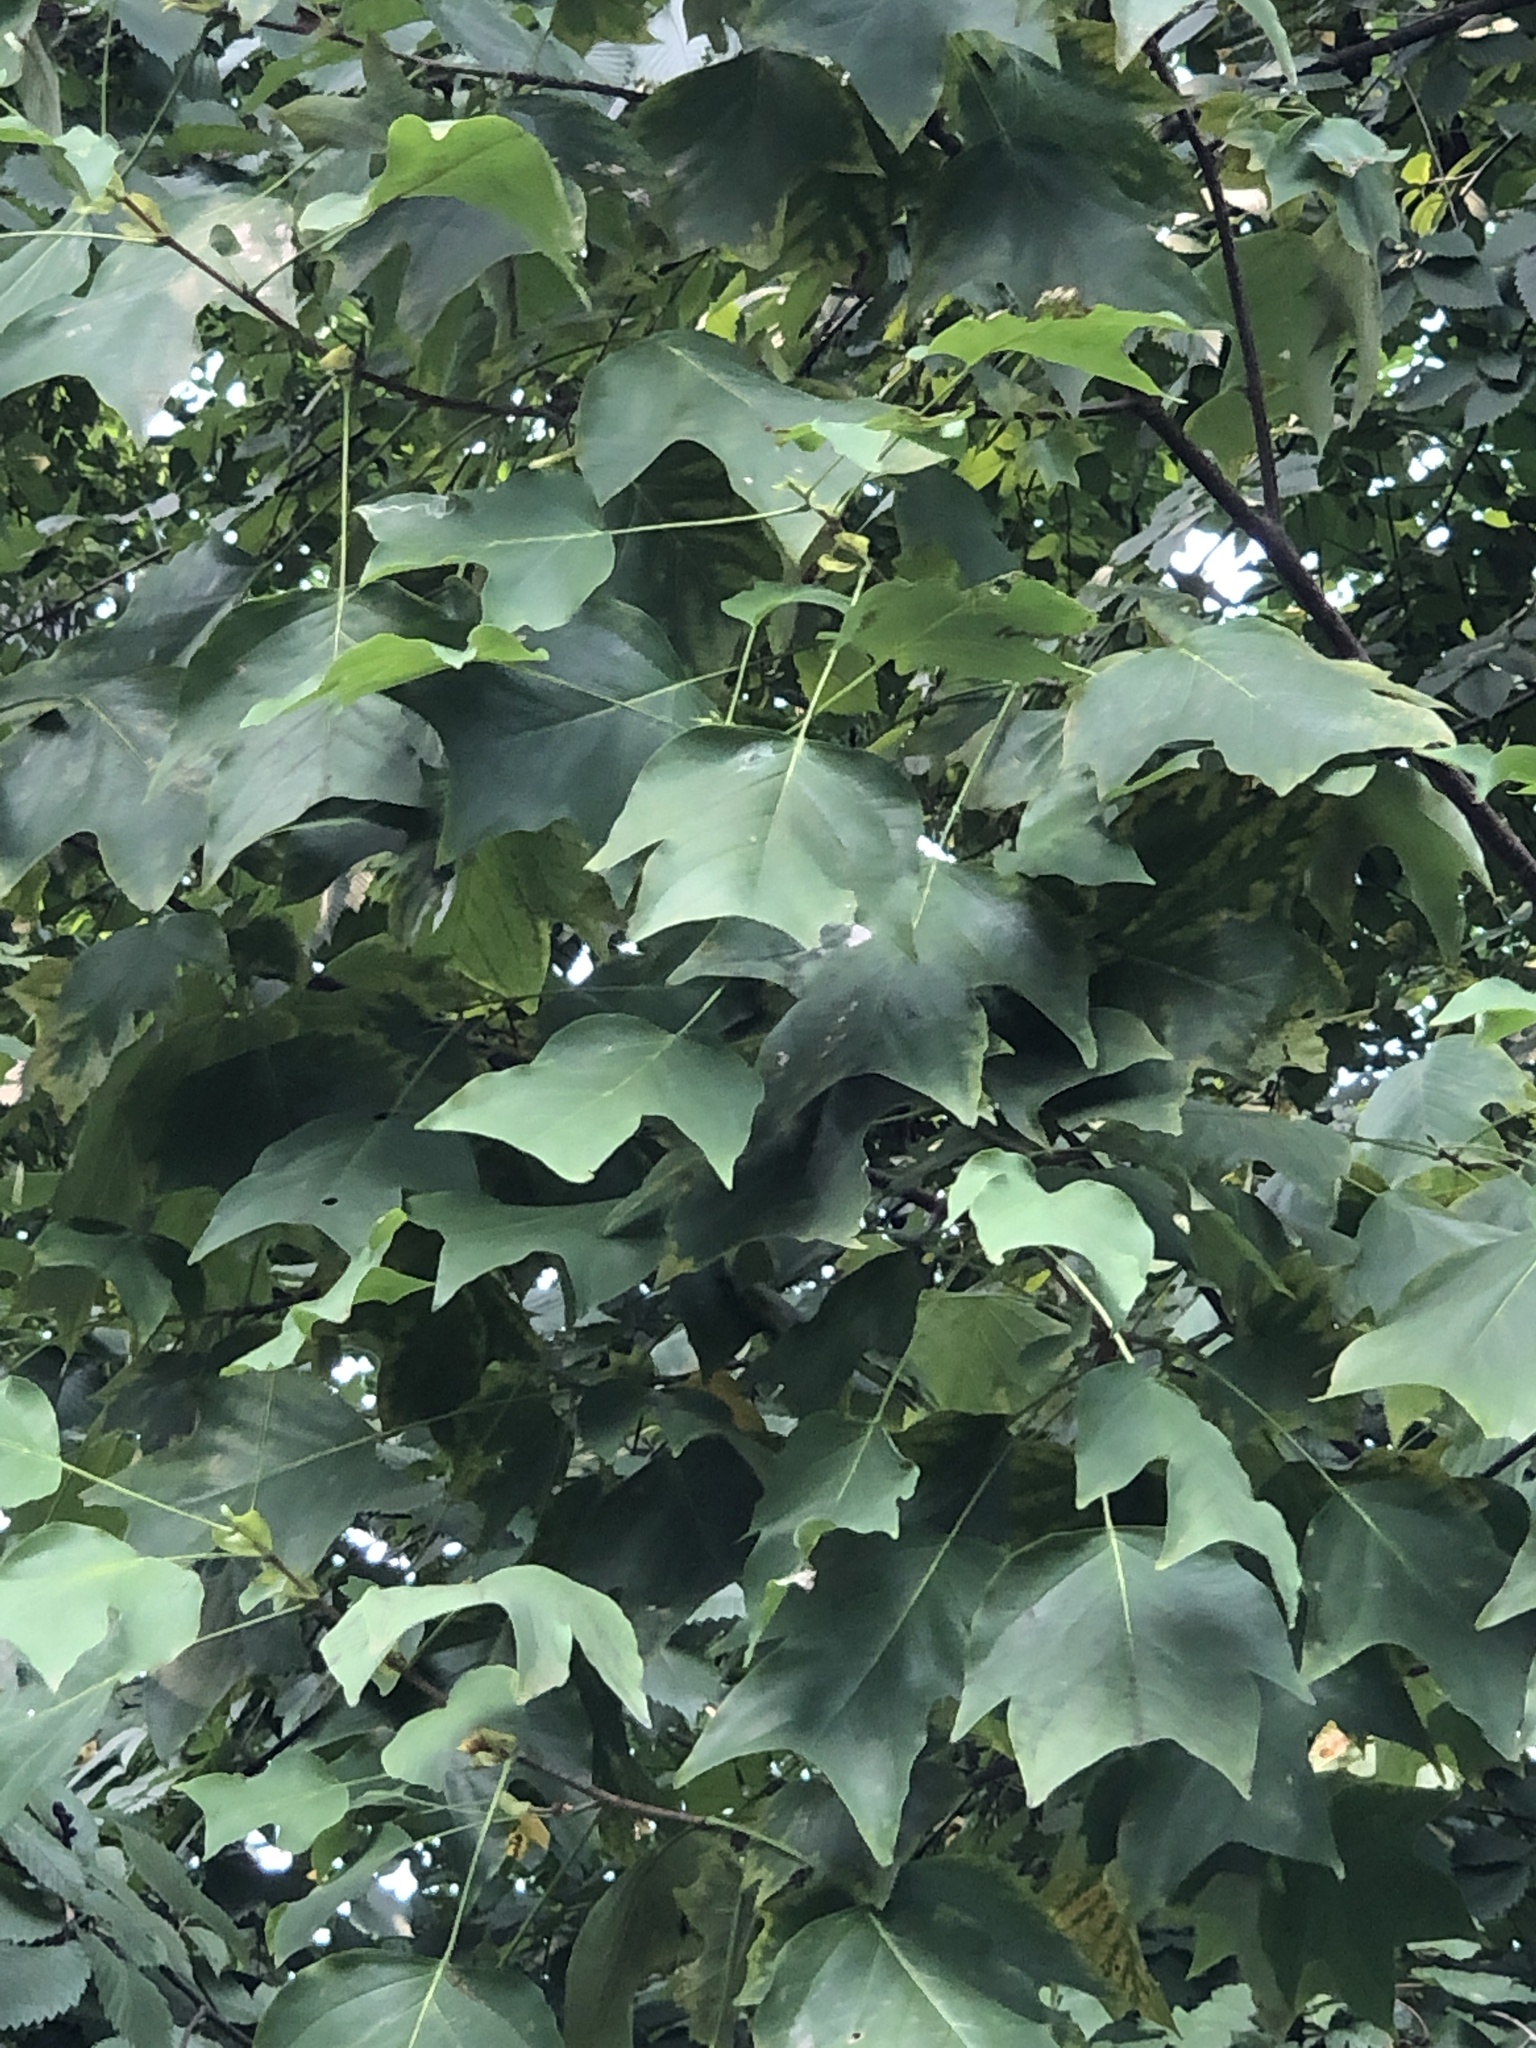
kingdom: Plantae
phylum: Tracheophyta
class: Magnoliopsida
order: Magnoliales
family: Magnoliaceae
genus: Liriodendron
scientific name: Liriodendron tulipifera
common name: Tulip tree
